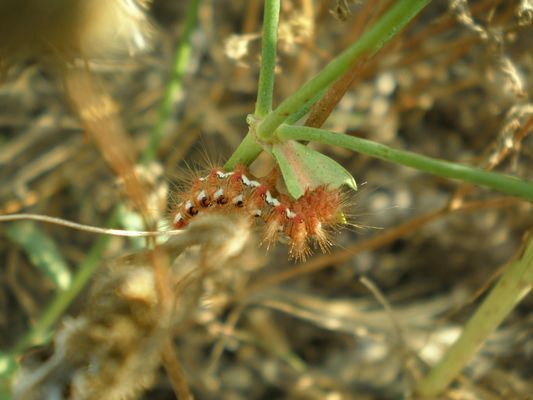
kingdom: Animalia
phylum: Arthropoda
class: Insecta
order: Lepidoptera
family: Noctuidae
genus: Acronicta
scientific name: Acronicta rumicis
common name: Knot grass
